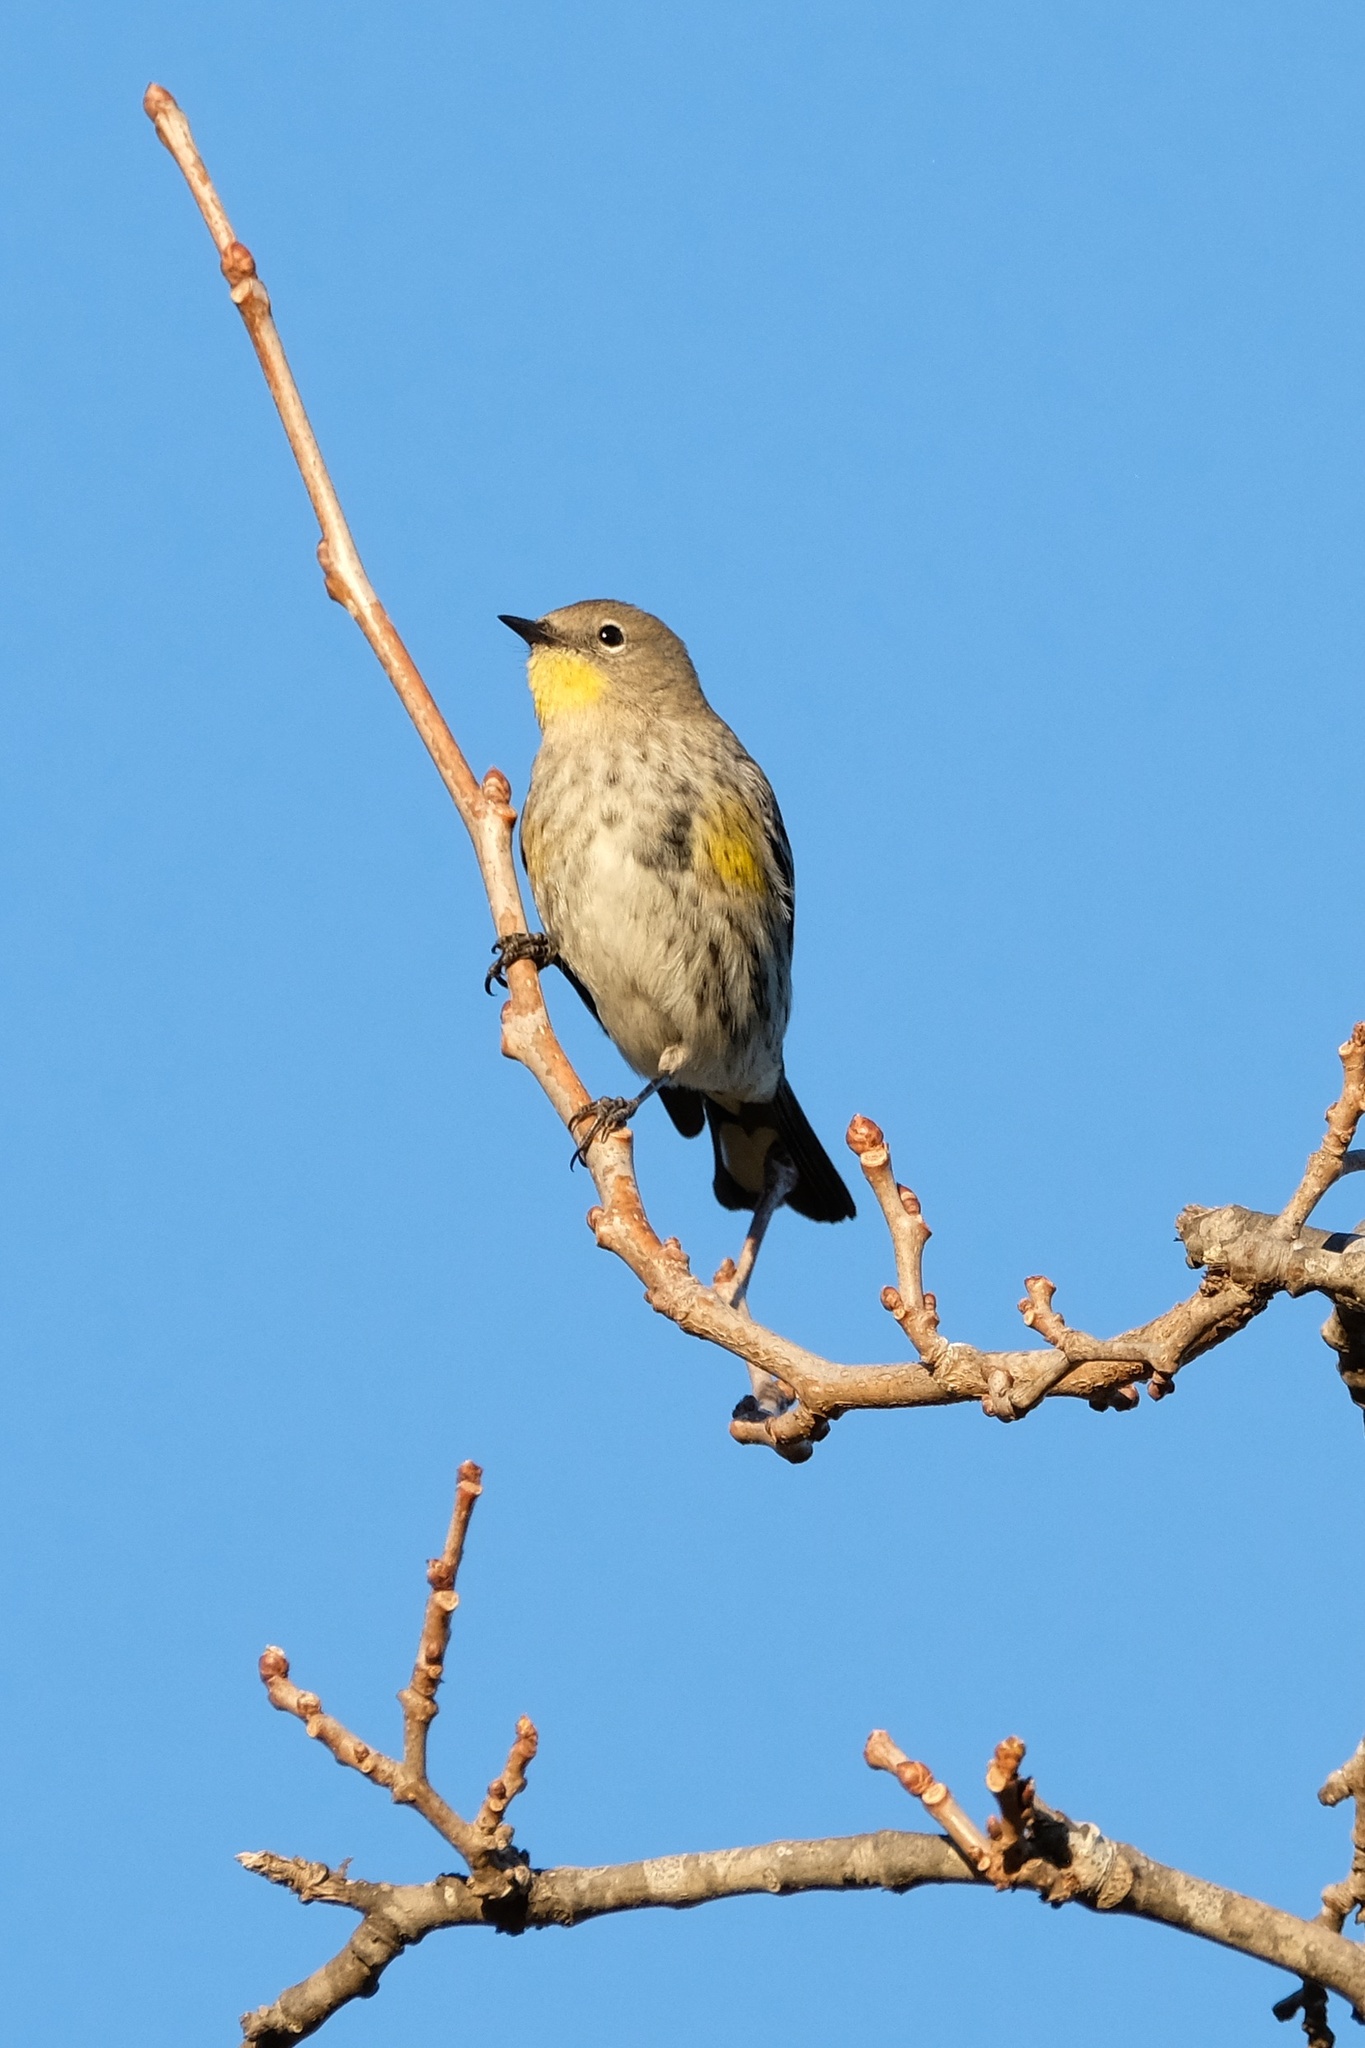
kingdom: Animalia
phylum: Chordata
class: Aves
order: Passeriformes
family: Parulidae
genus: Setophaga
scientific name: Setophaga auduboni
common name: Audubon's warbler
